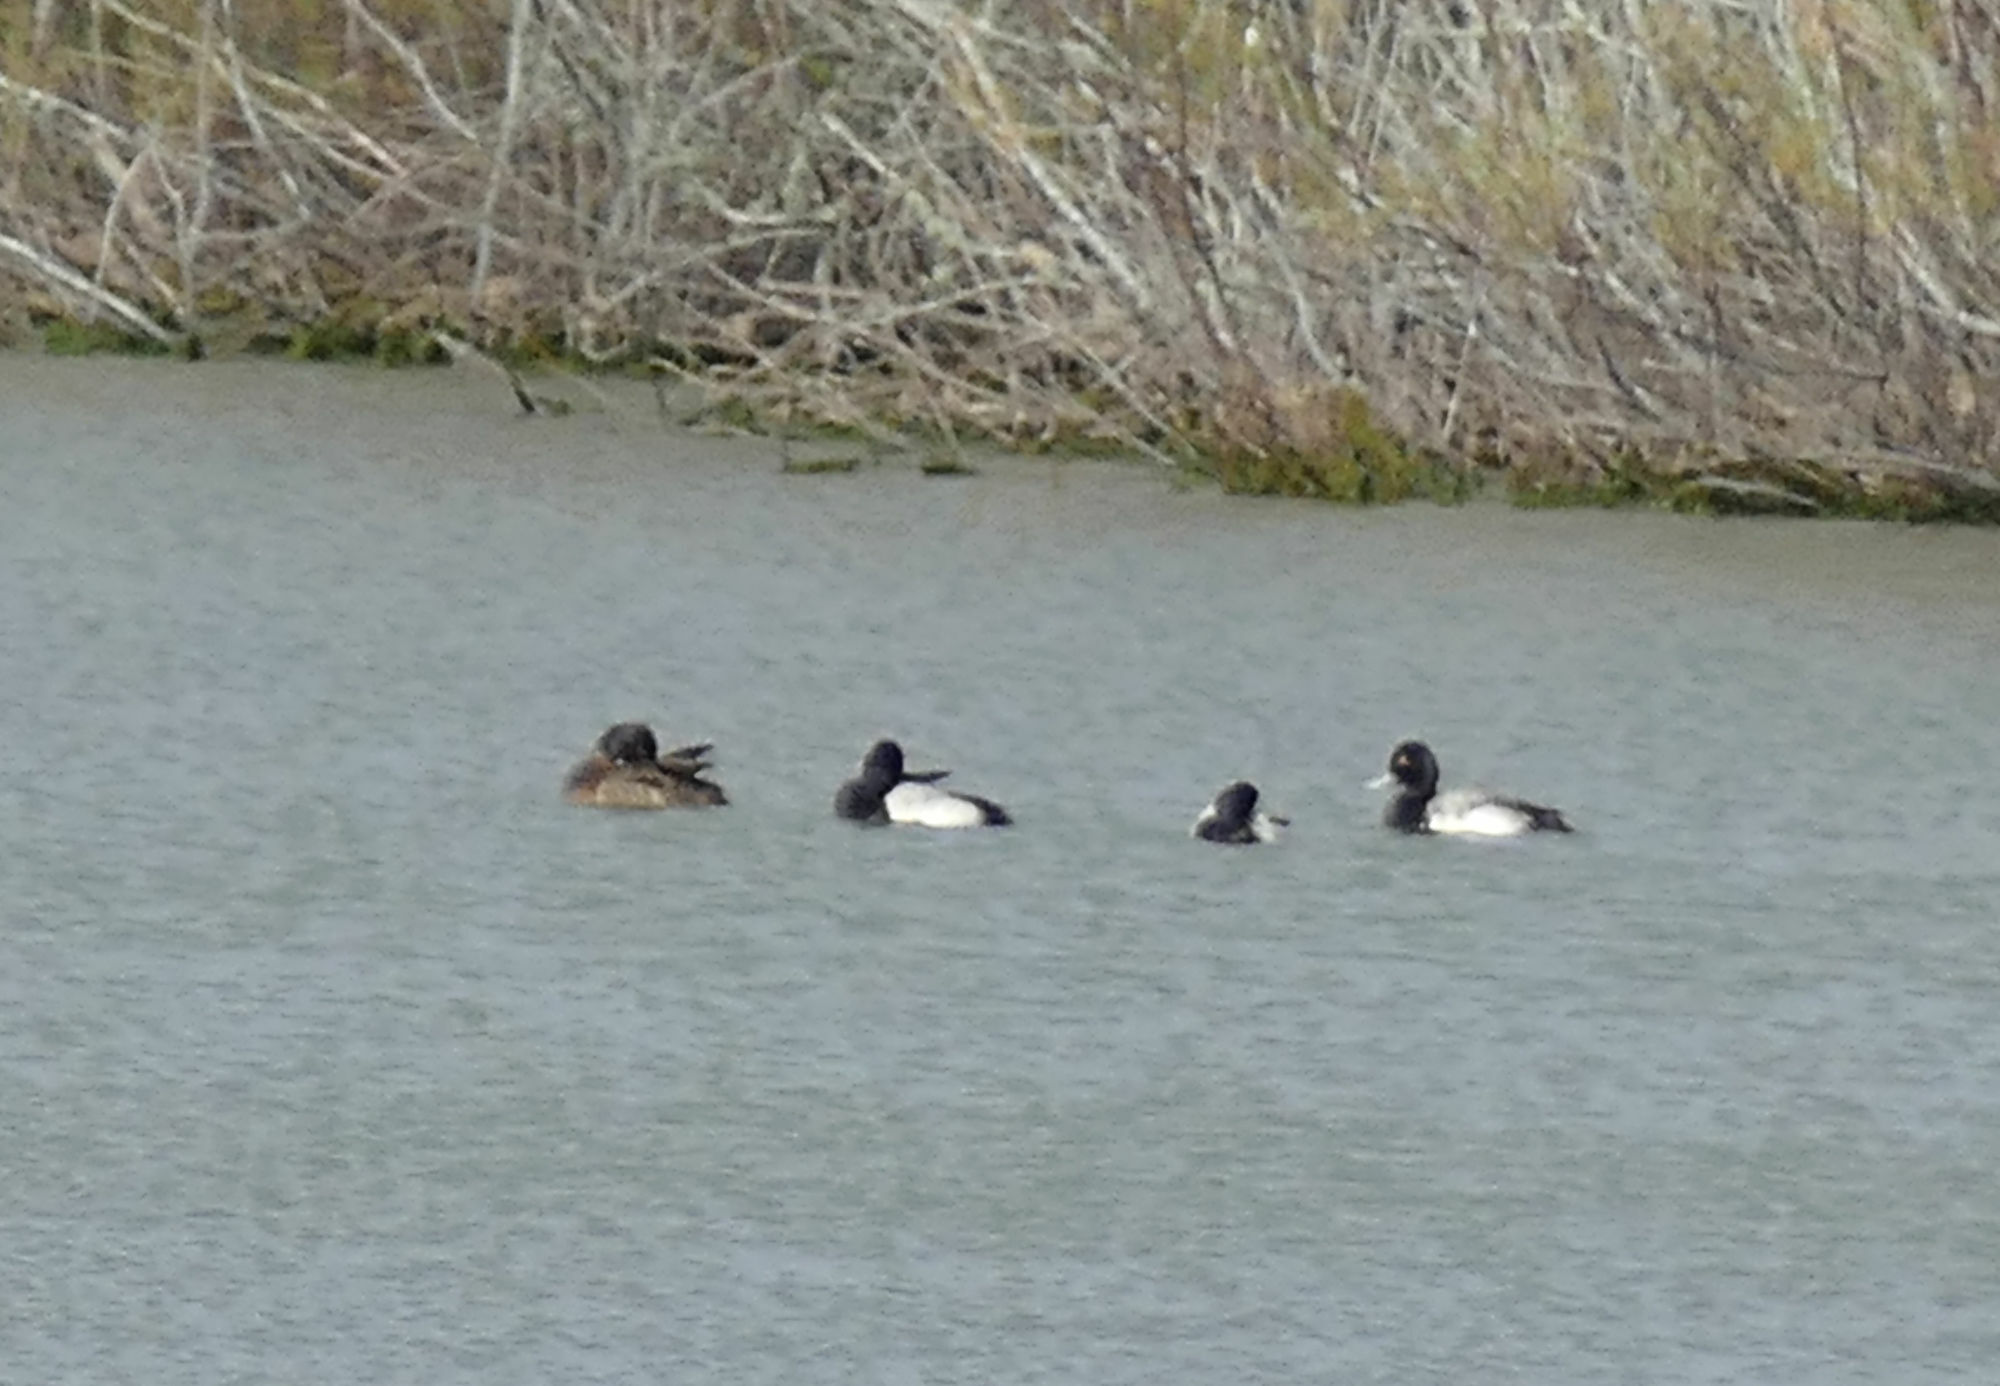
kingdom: Animalia
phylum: Chordata
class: Aves
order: Anseriformes
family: Anatidae
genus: Aythya
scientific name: Aythya marila
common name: Greater scaup
